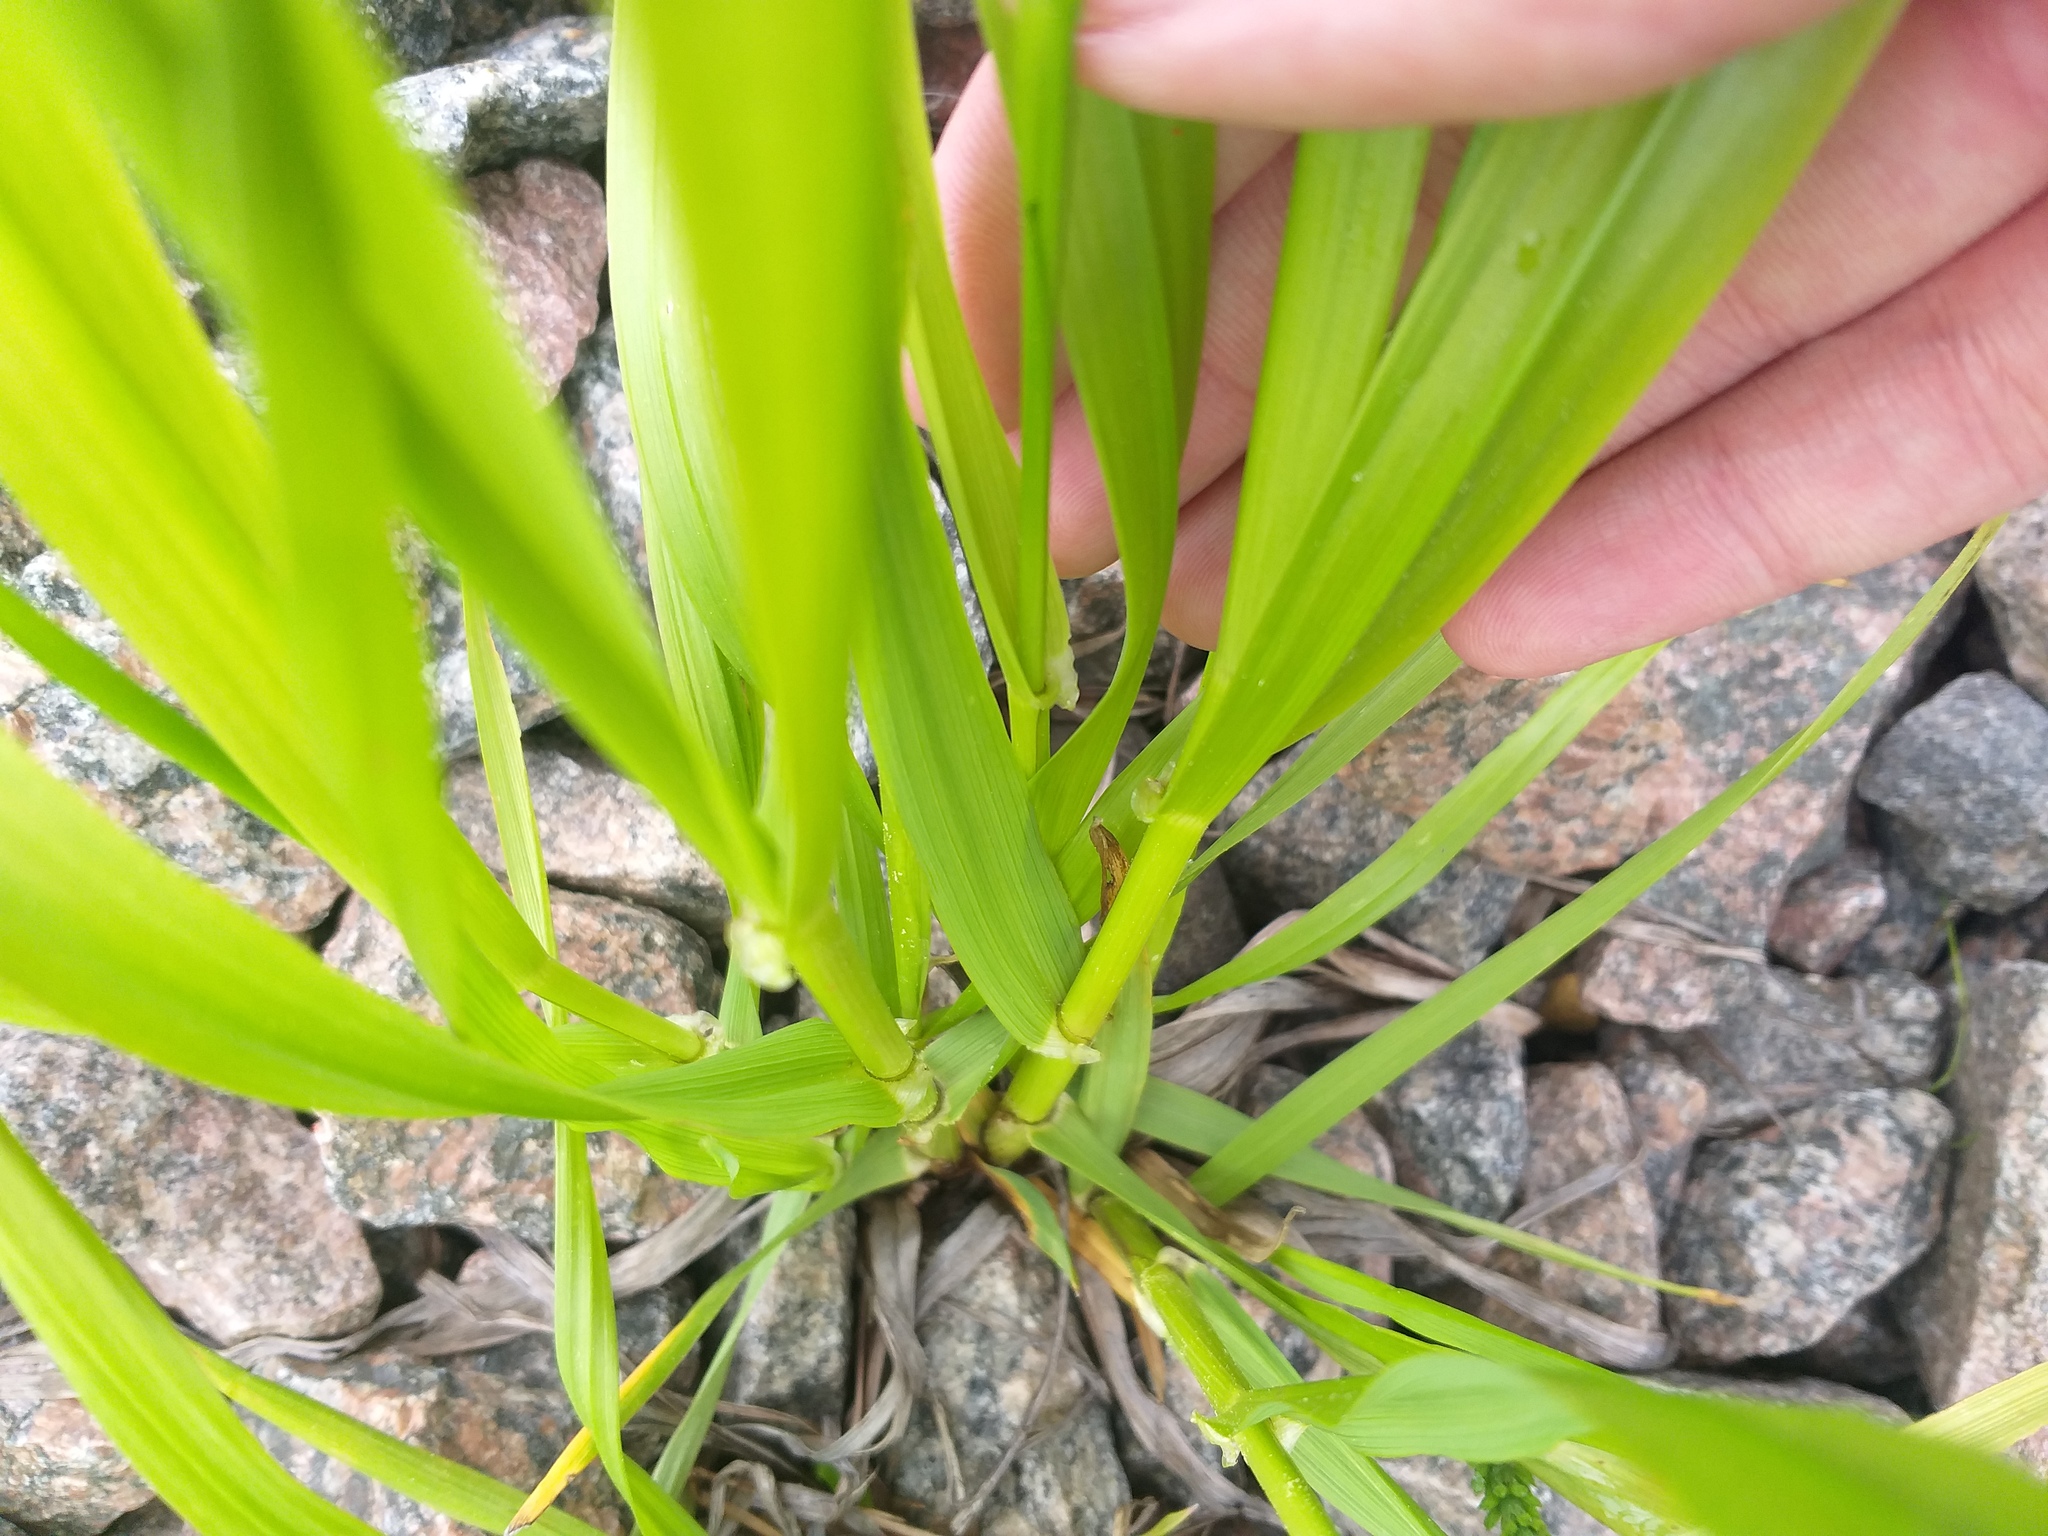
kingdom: Plantae
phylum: Tracheophyta
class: Liliopsida
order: Poales
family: Poaceae
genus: Lolium
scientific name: Lolium giganteum
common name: Giant fescue
